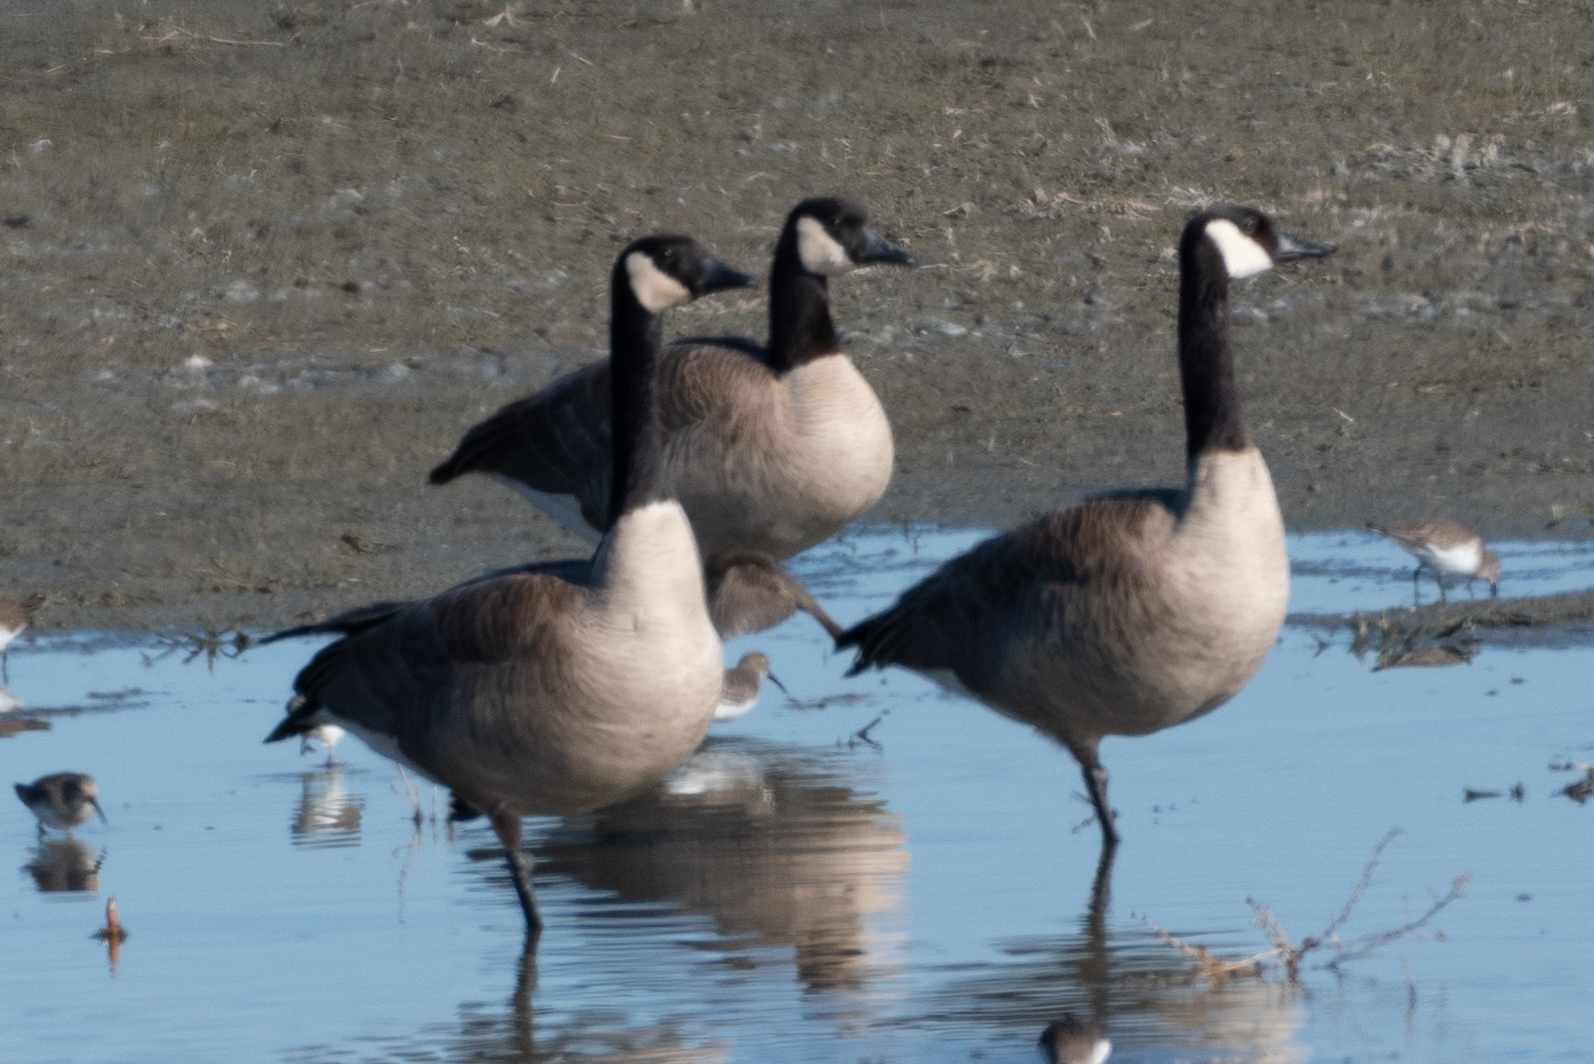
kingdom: Animalia
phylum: Chordata
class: Aves
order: Anseriformes
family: Anatidae
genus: Branta
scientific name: Branta canadensis
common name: Canada goose
